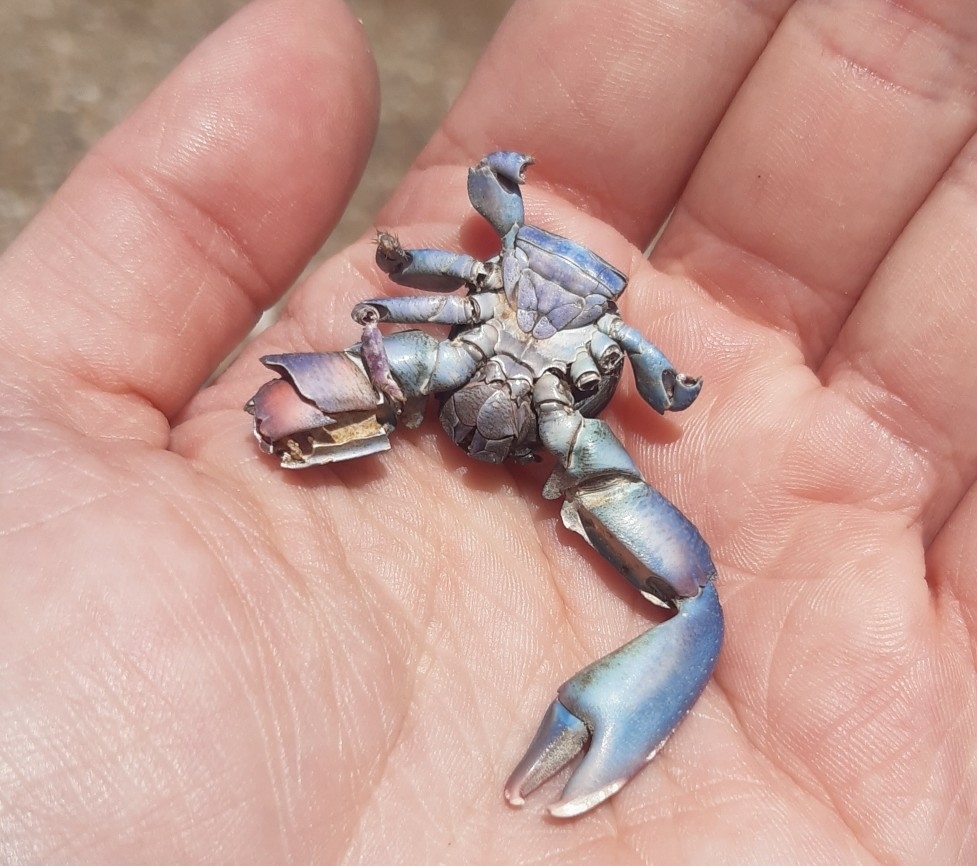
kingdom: Animalia
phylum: Arthropoda
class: Malacostraca
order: Decapoda
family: Porcellanidae
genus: Petrolisthes
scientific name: Petrolisthes elongatus
